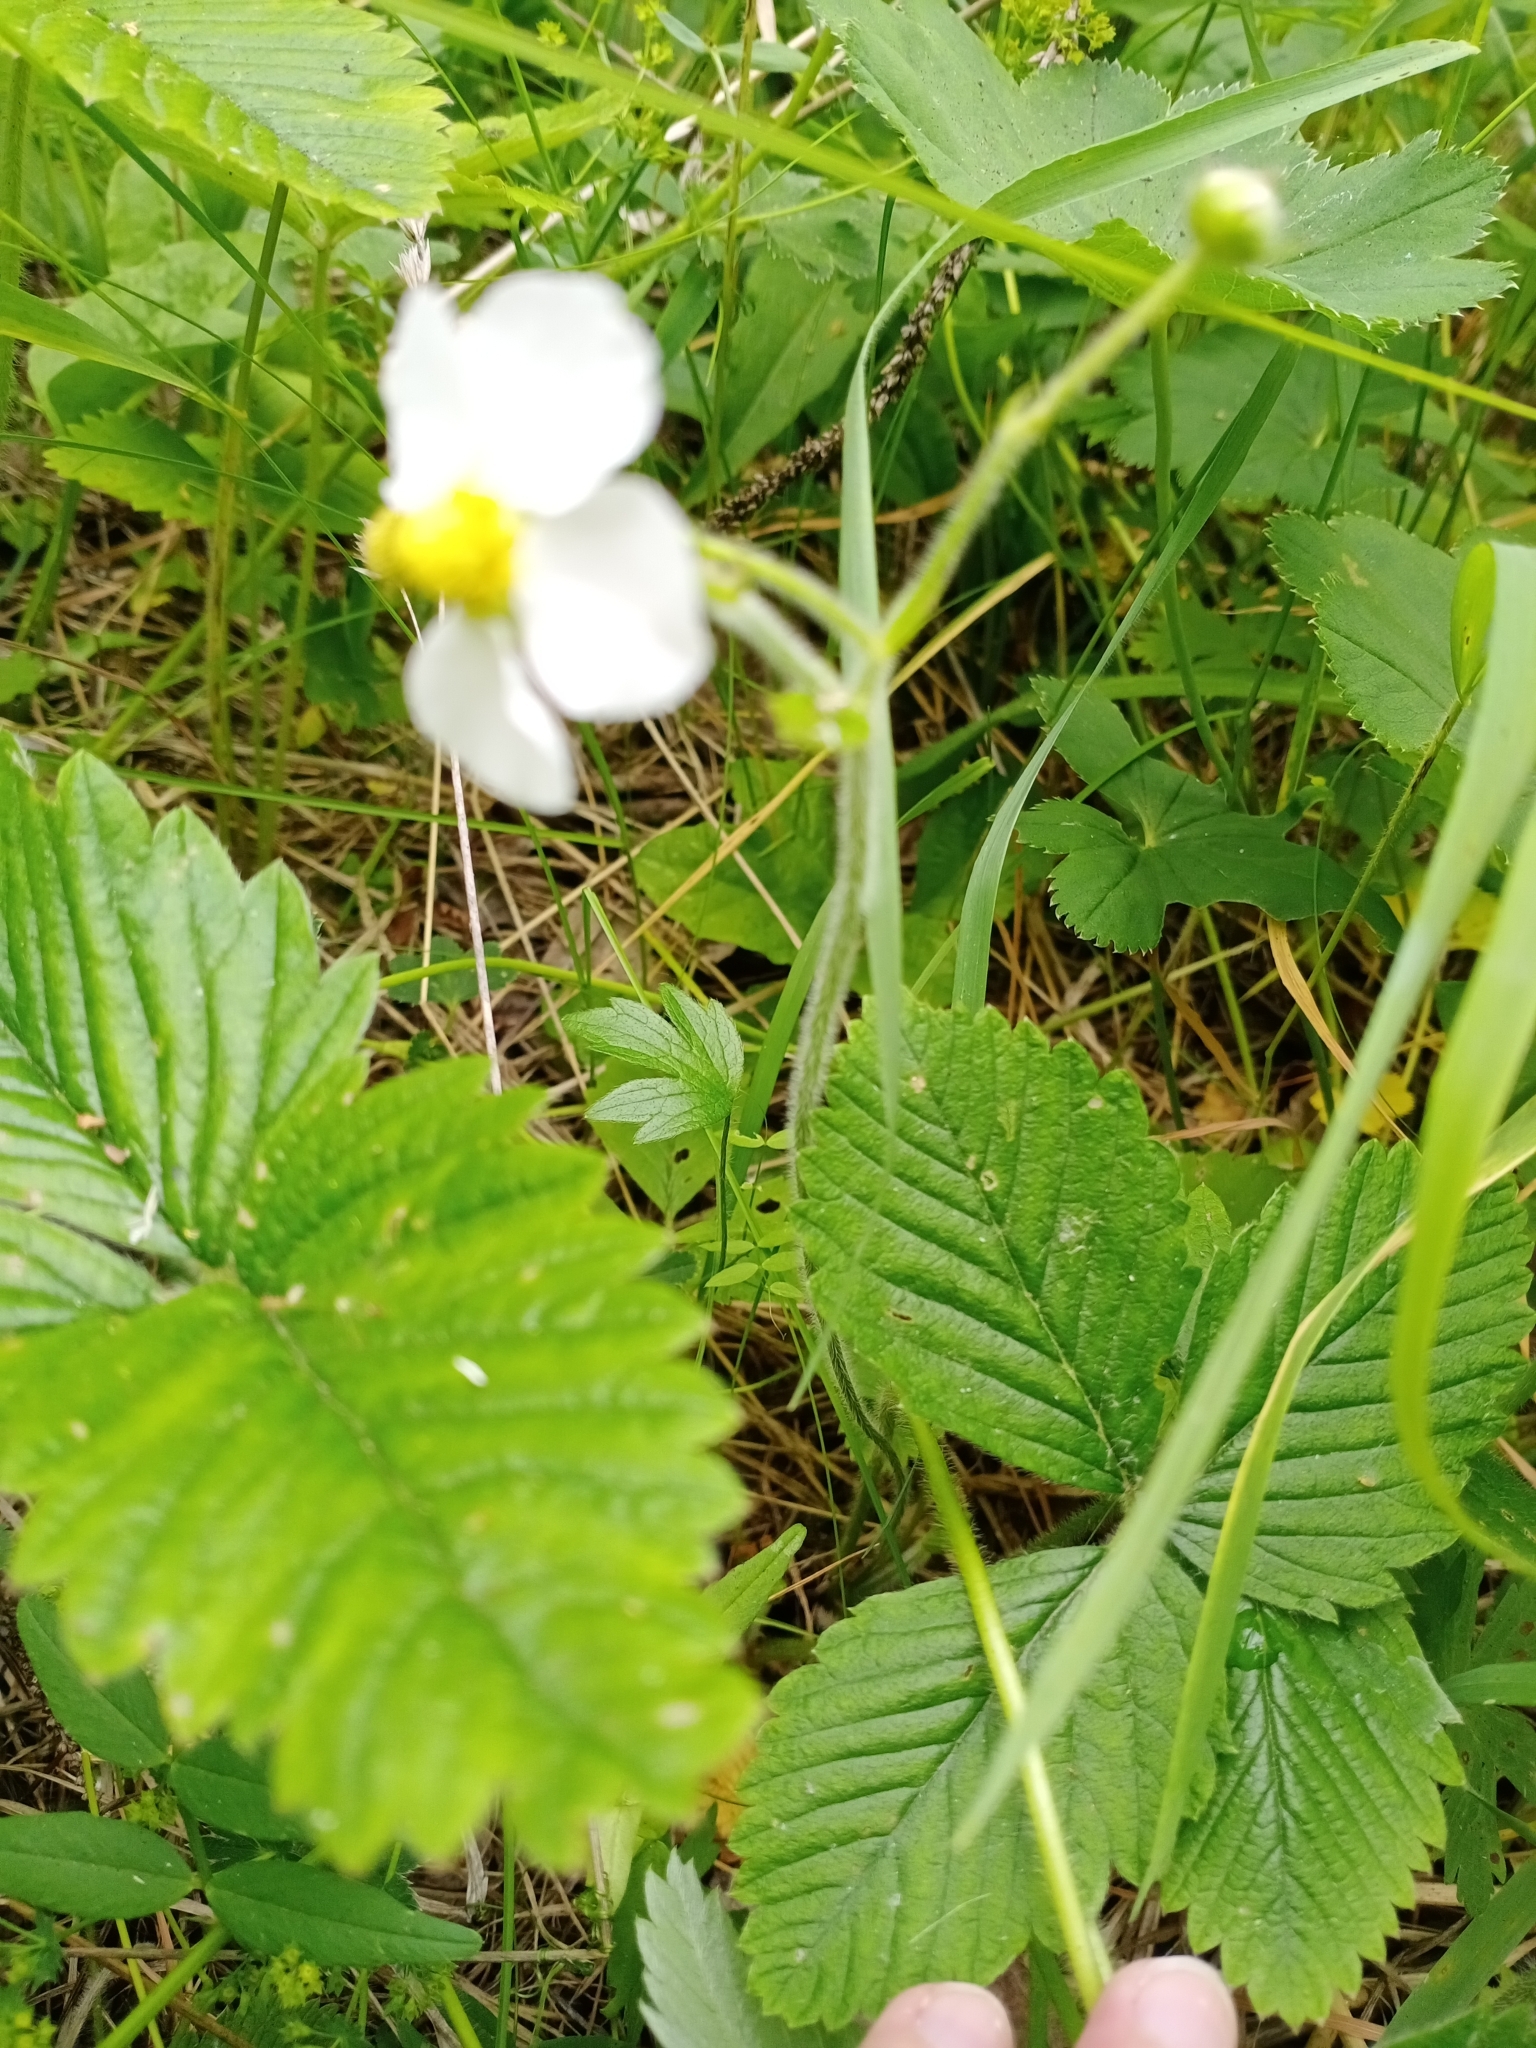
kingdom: Plantae
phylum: Tracheophyta
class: Magnoliopsida
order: Rosales
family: Rosaceae
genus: Fragaria
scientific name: Fragaria moschata
